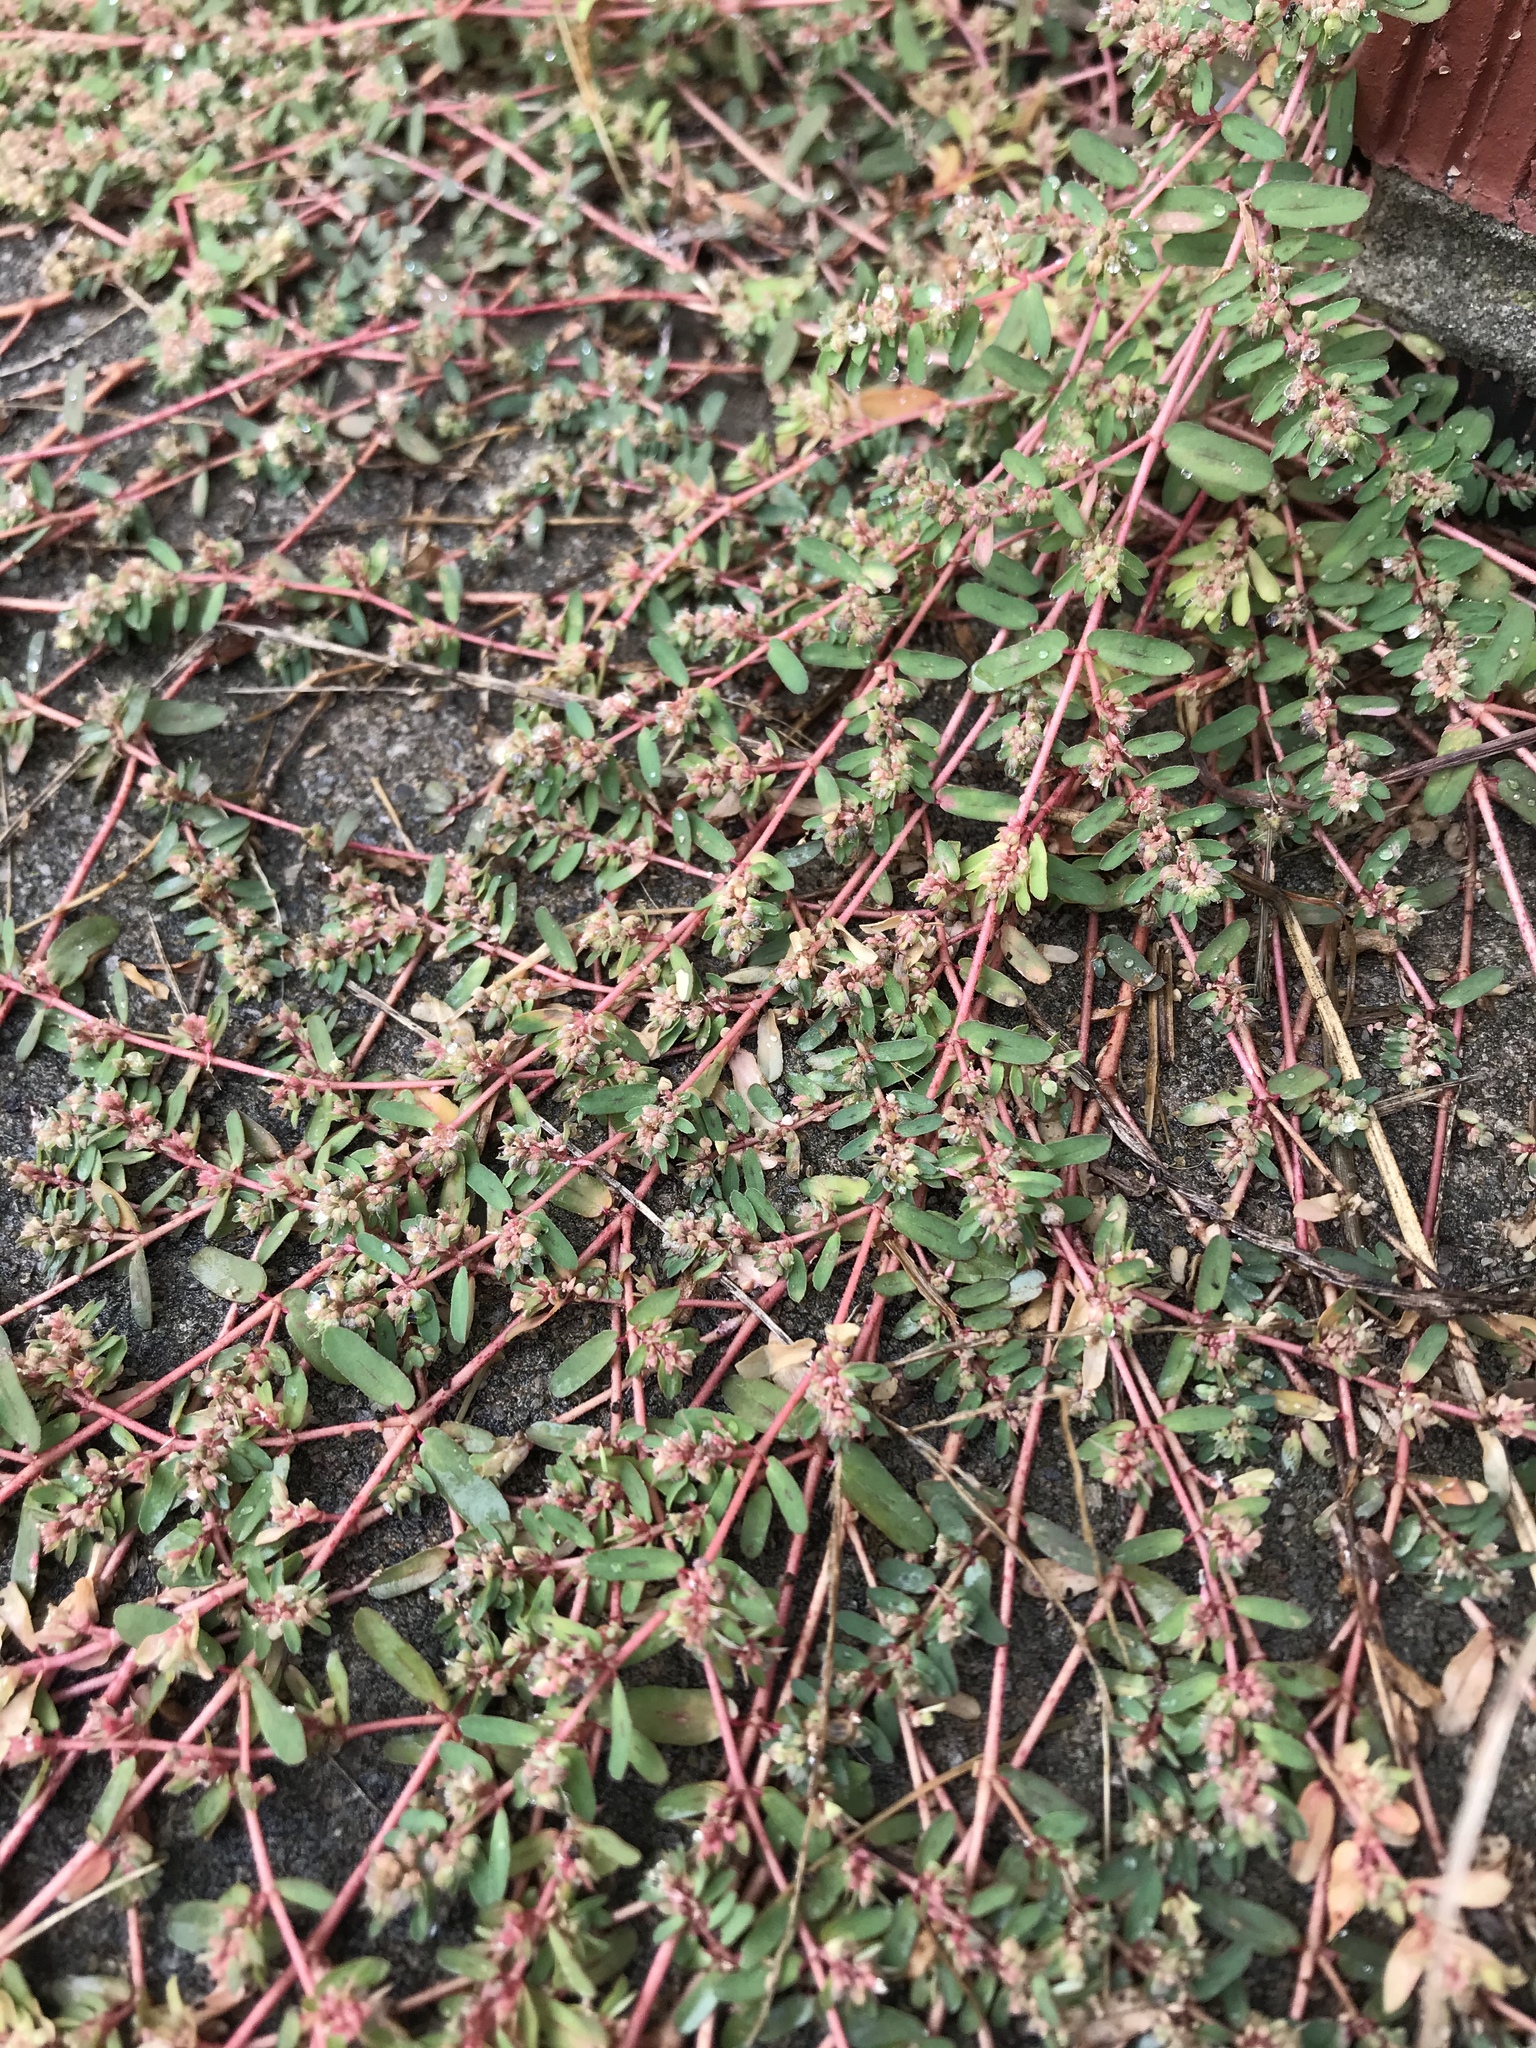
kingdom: Plantae
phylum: Tracheophyta
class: Magnoliopsida
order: Malpighiales
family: Euphorbiaceae
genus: Euphorbia
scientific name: Euphorbia prostrata
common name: Prostrate sandmat
